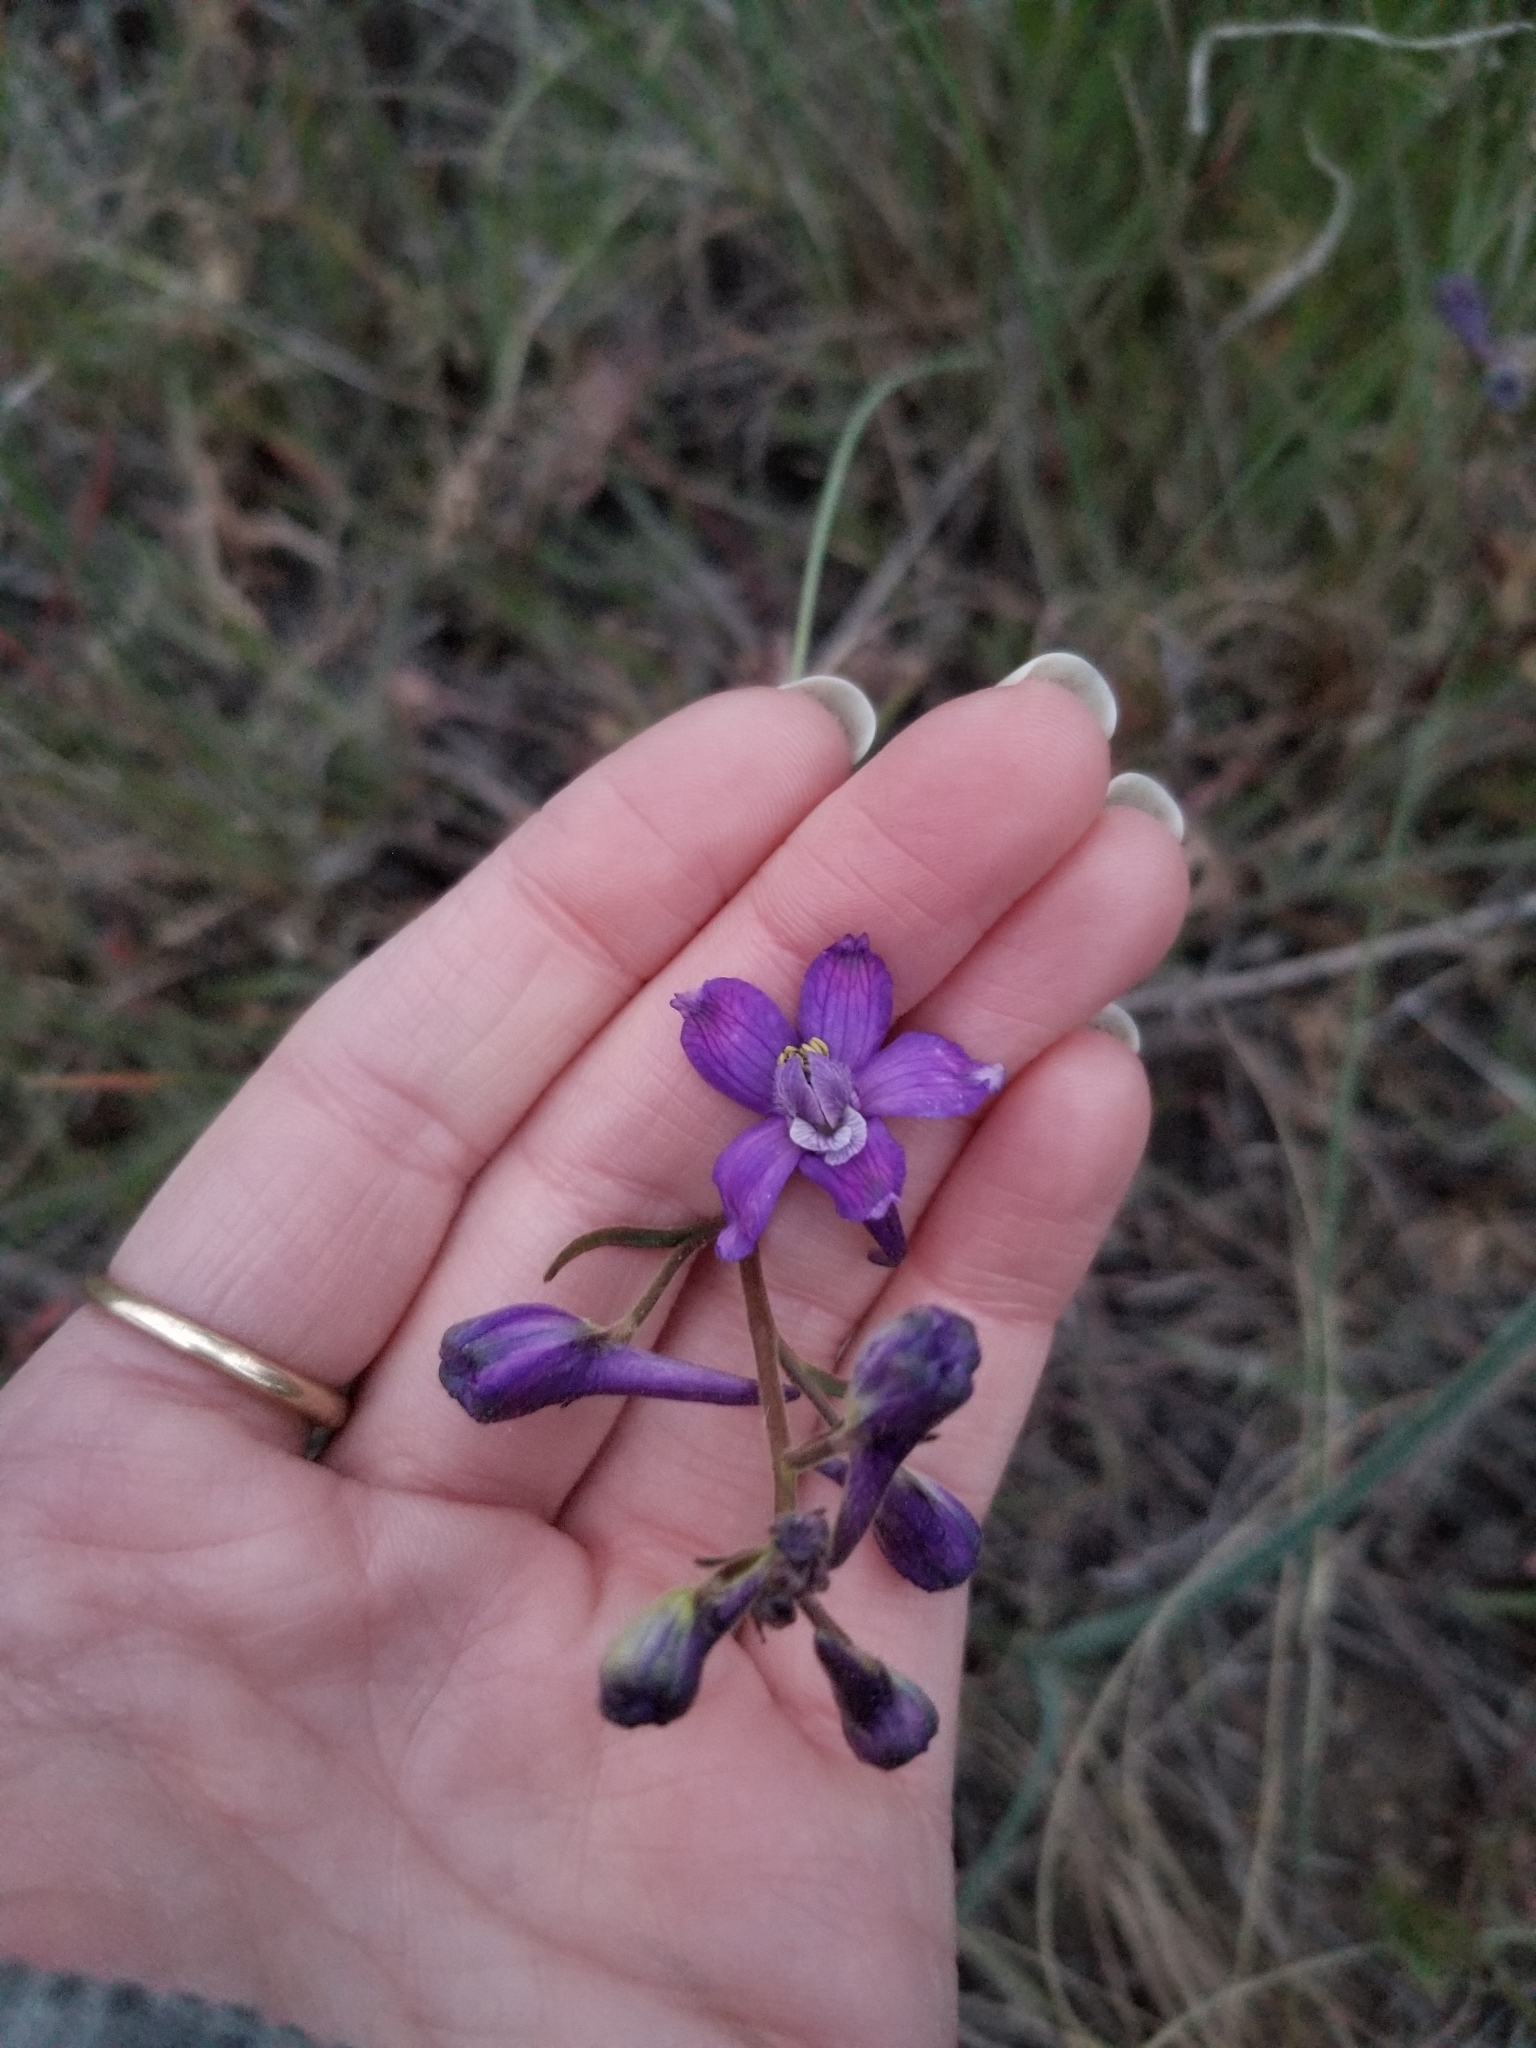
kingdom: Plantae
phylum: Tracheophyta
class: Magnoliopsida
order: Ranunculales
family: Ranunculaceae
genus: Delphinium
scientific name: Delphinium nuttallianum
